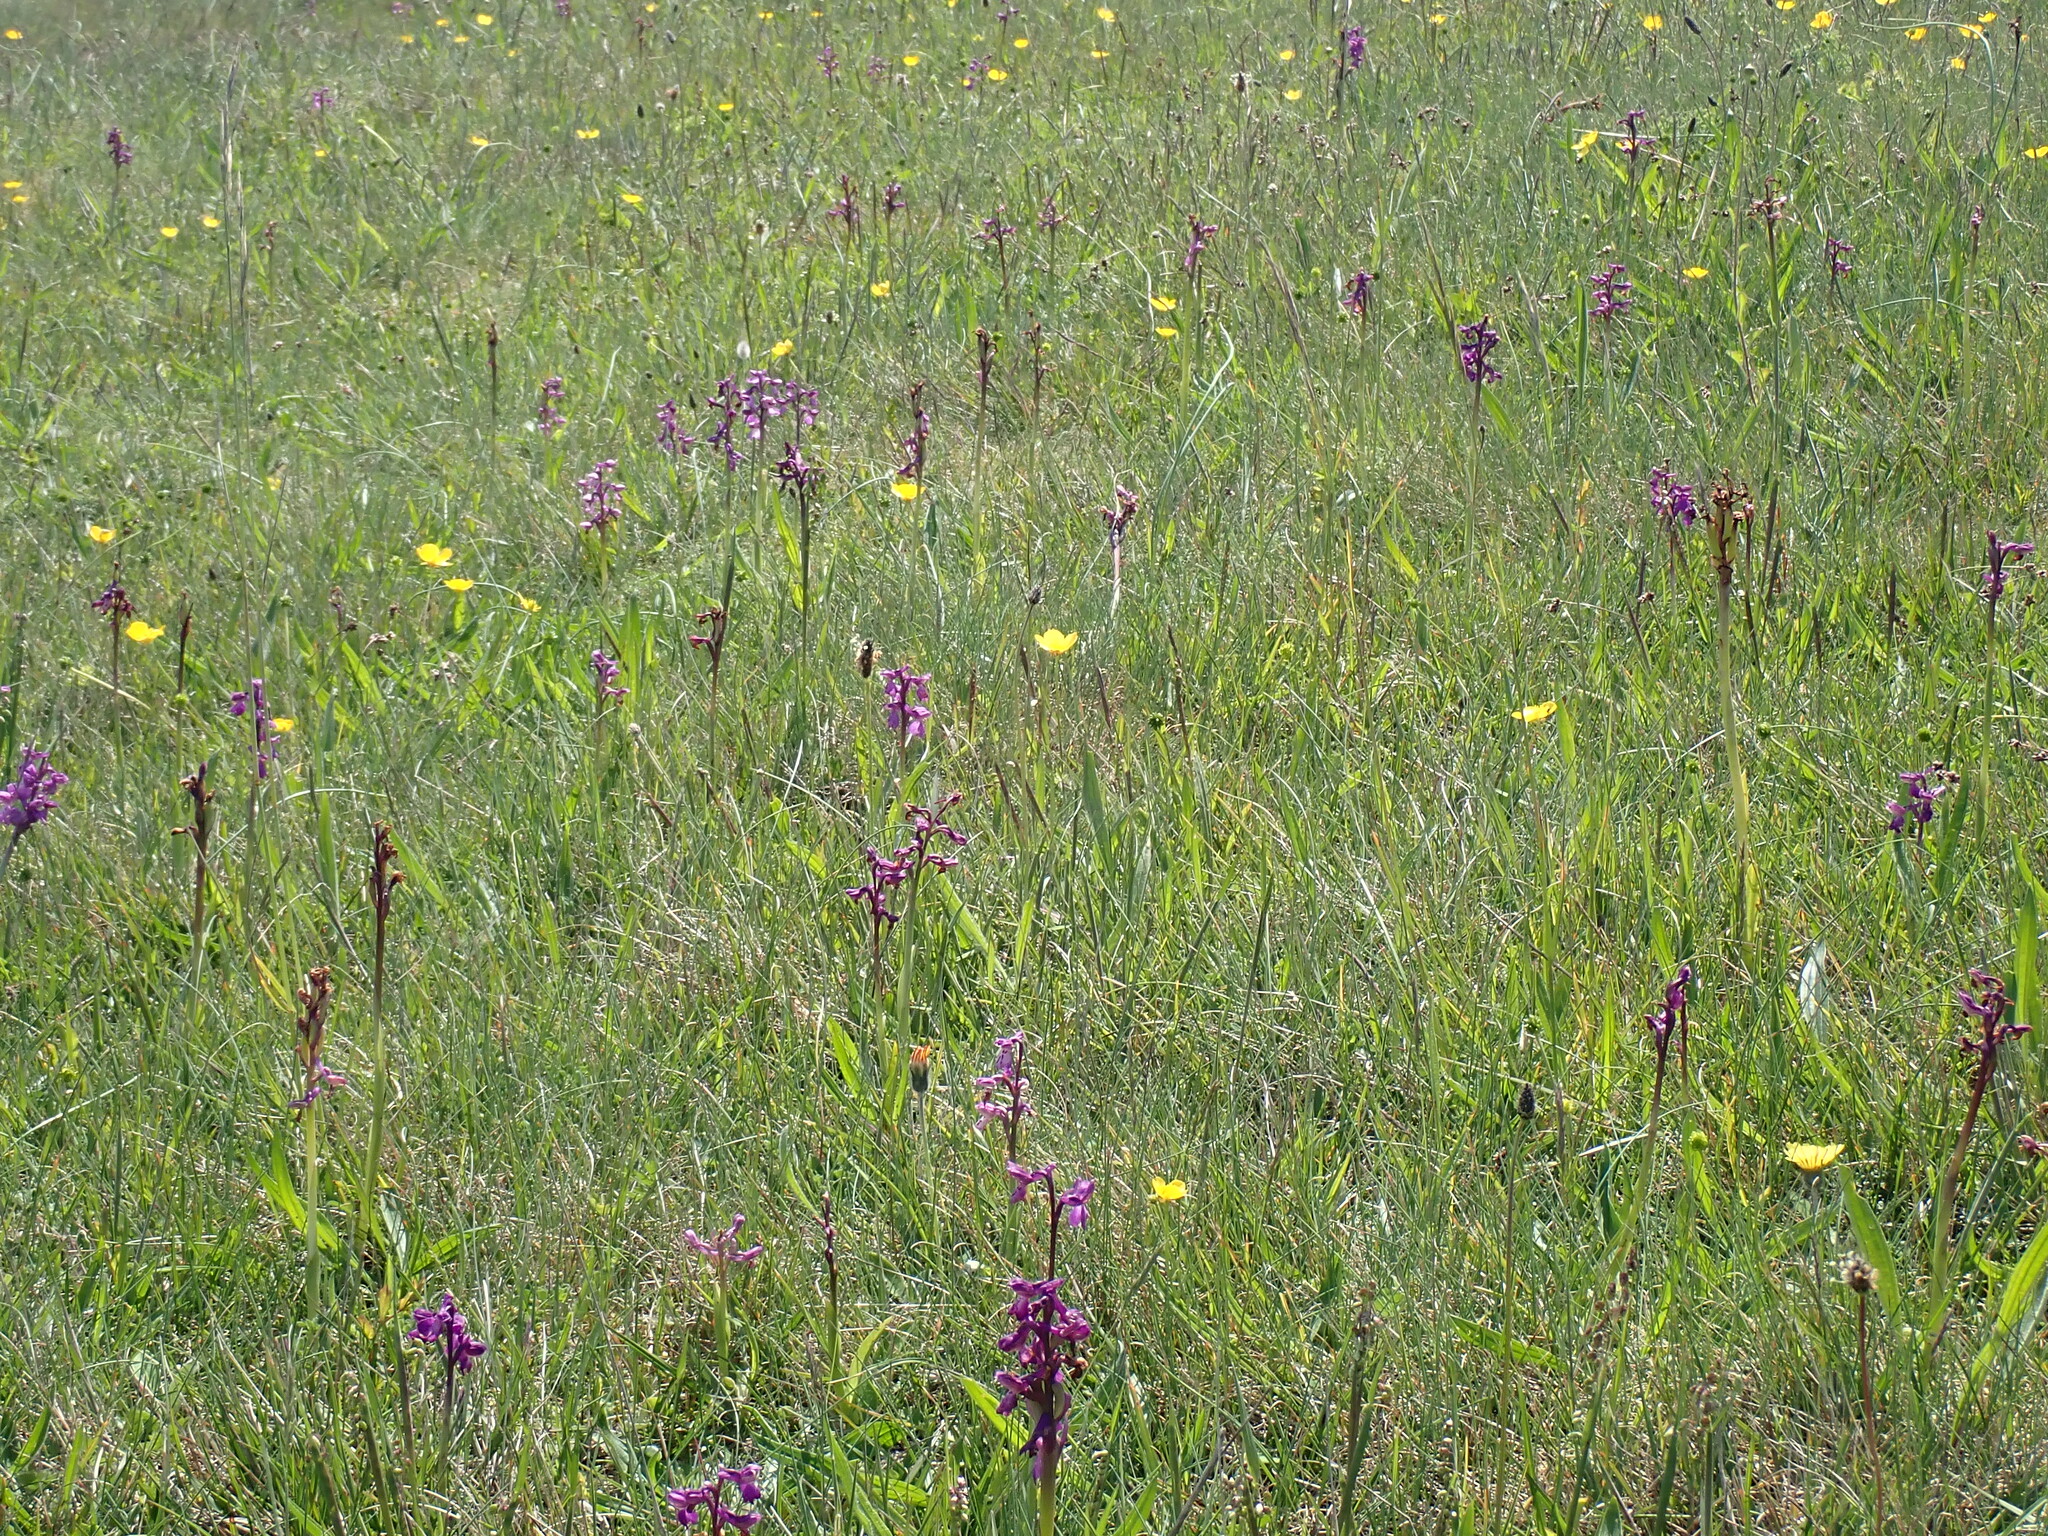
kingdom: Plantae
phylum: Tracheophyta
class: Liliopsida
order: Asparagales
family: Orchidaceae
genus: Anacamptis
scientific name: Anacamptis morio
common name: Green-winged orchid
